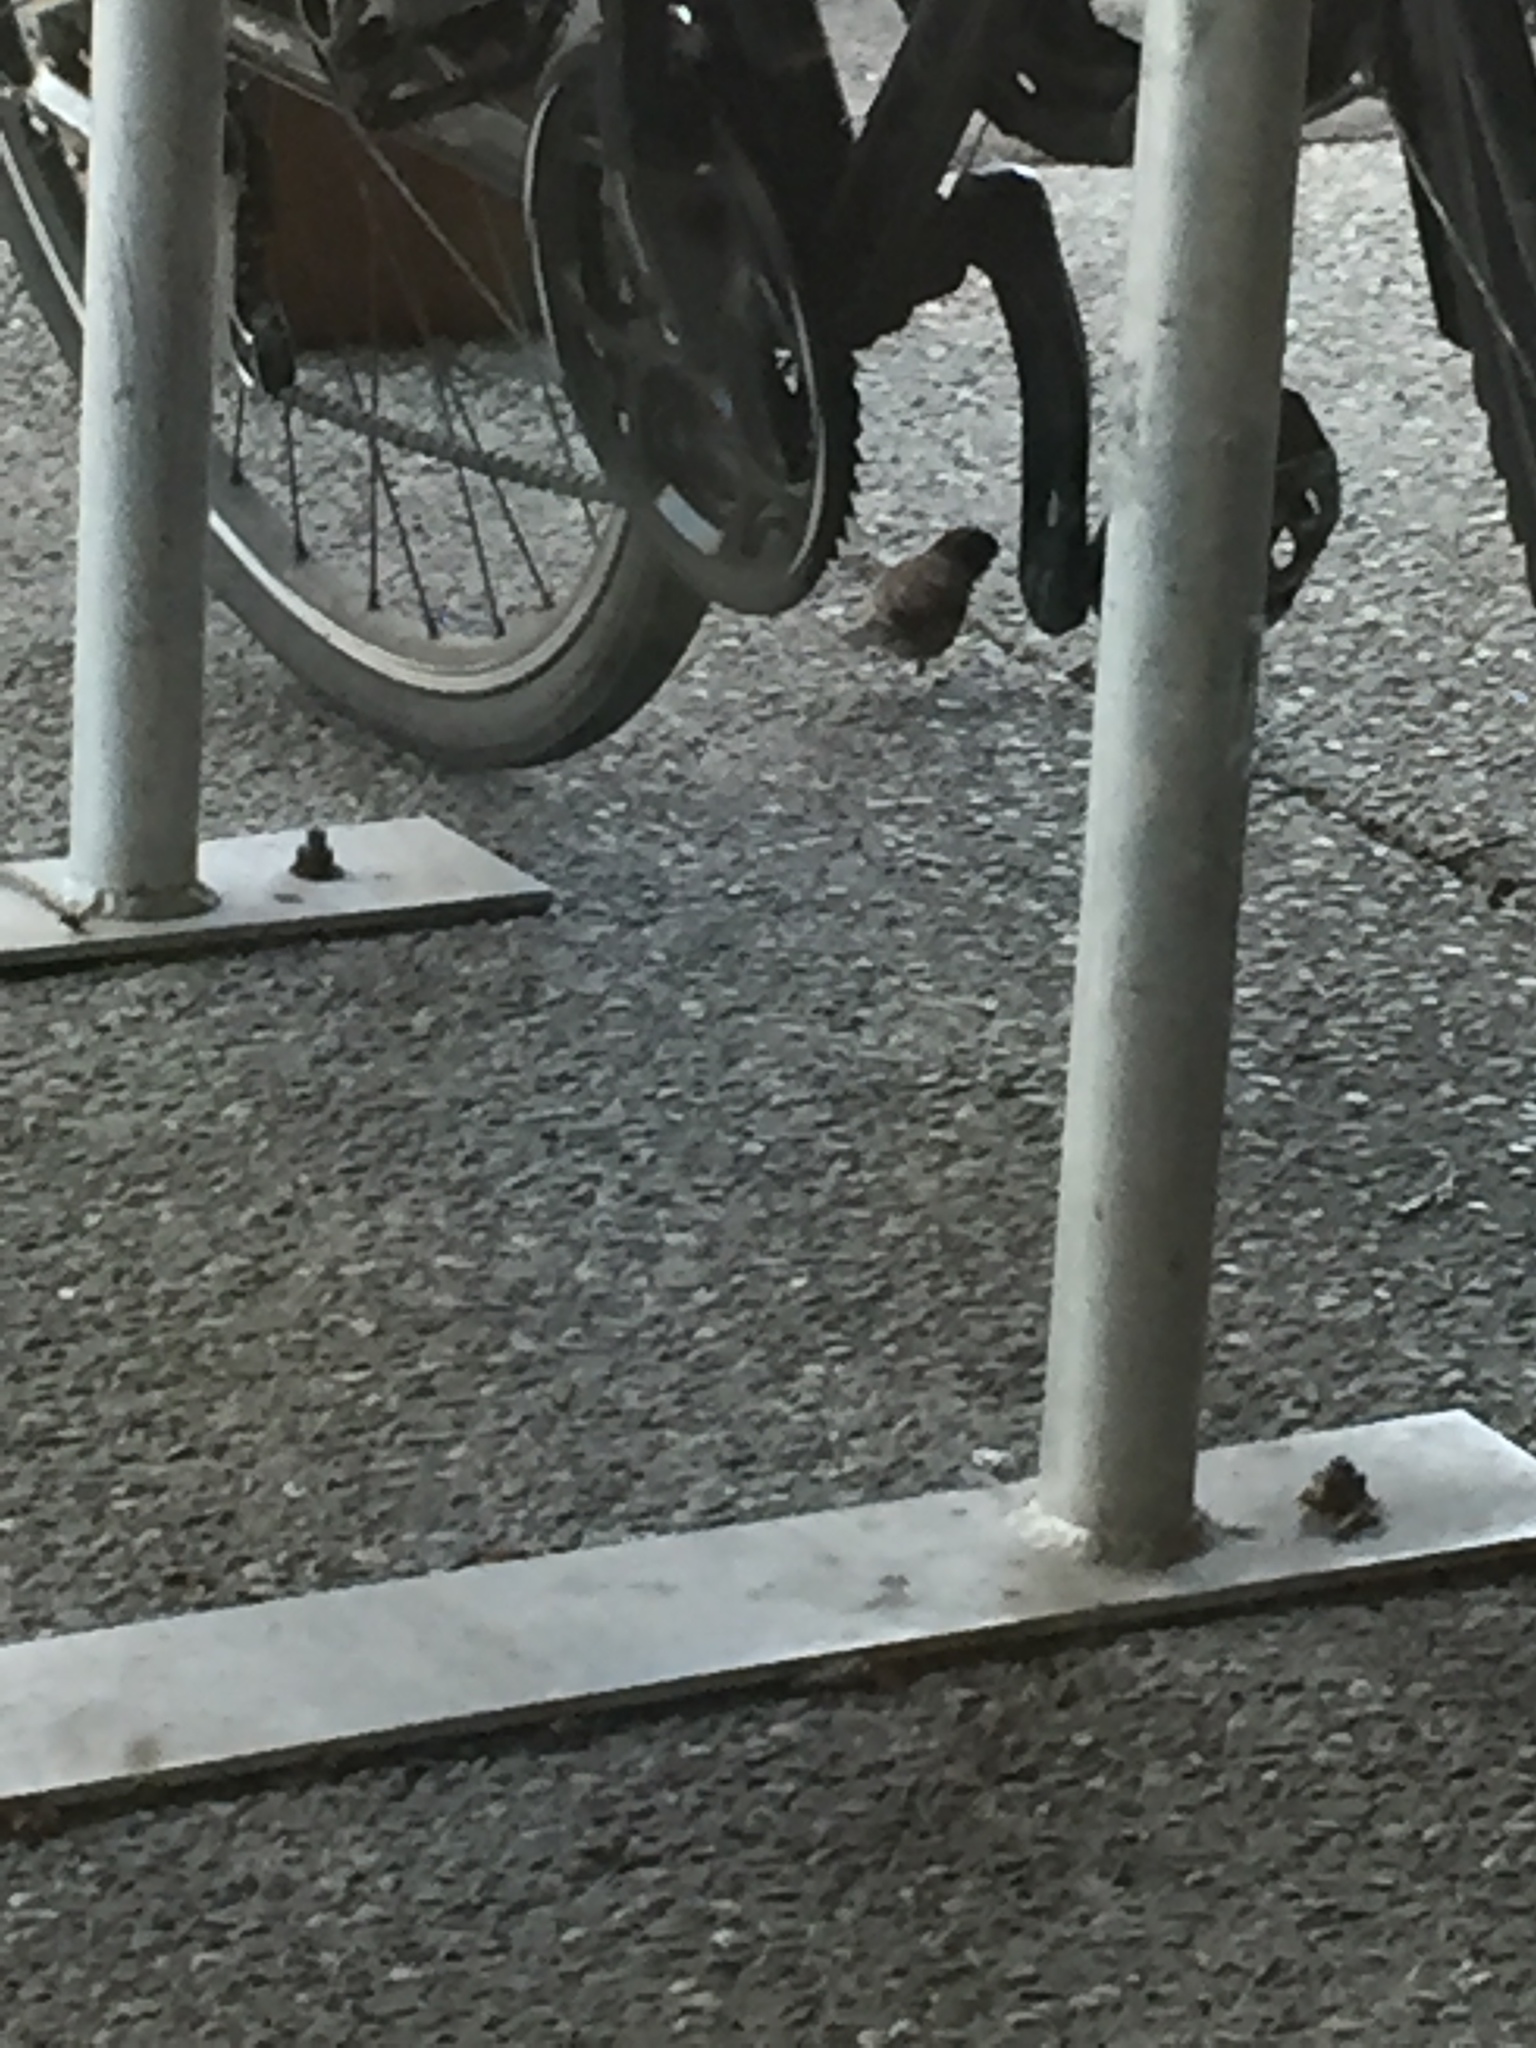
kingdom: Animalia
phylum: Chordata
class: Aves
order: Passeriformes
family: Passerellidae
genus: Junco
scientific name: Junco hyemalis
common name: Dark-eyed junco
